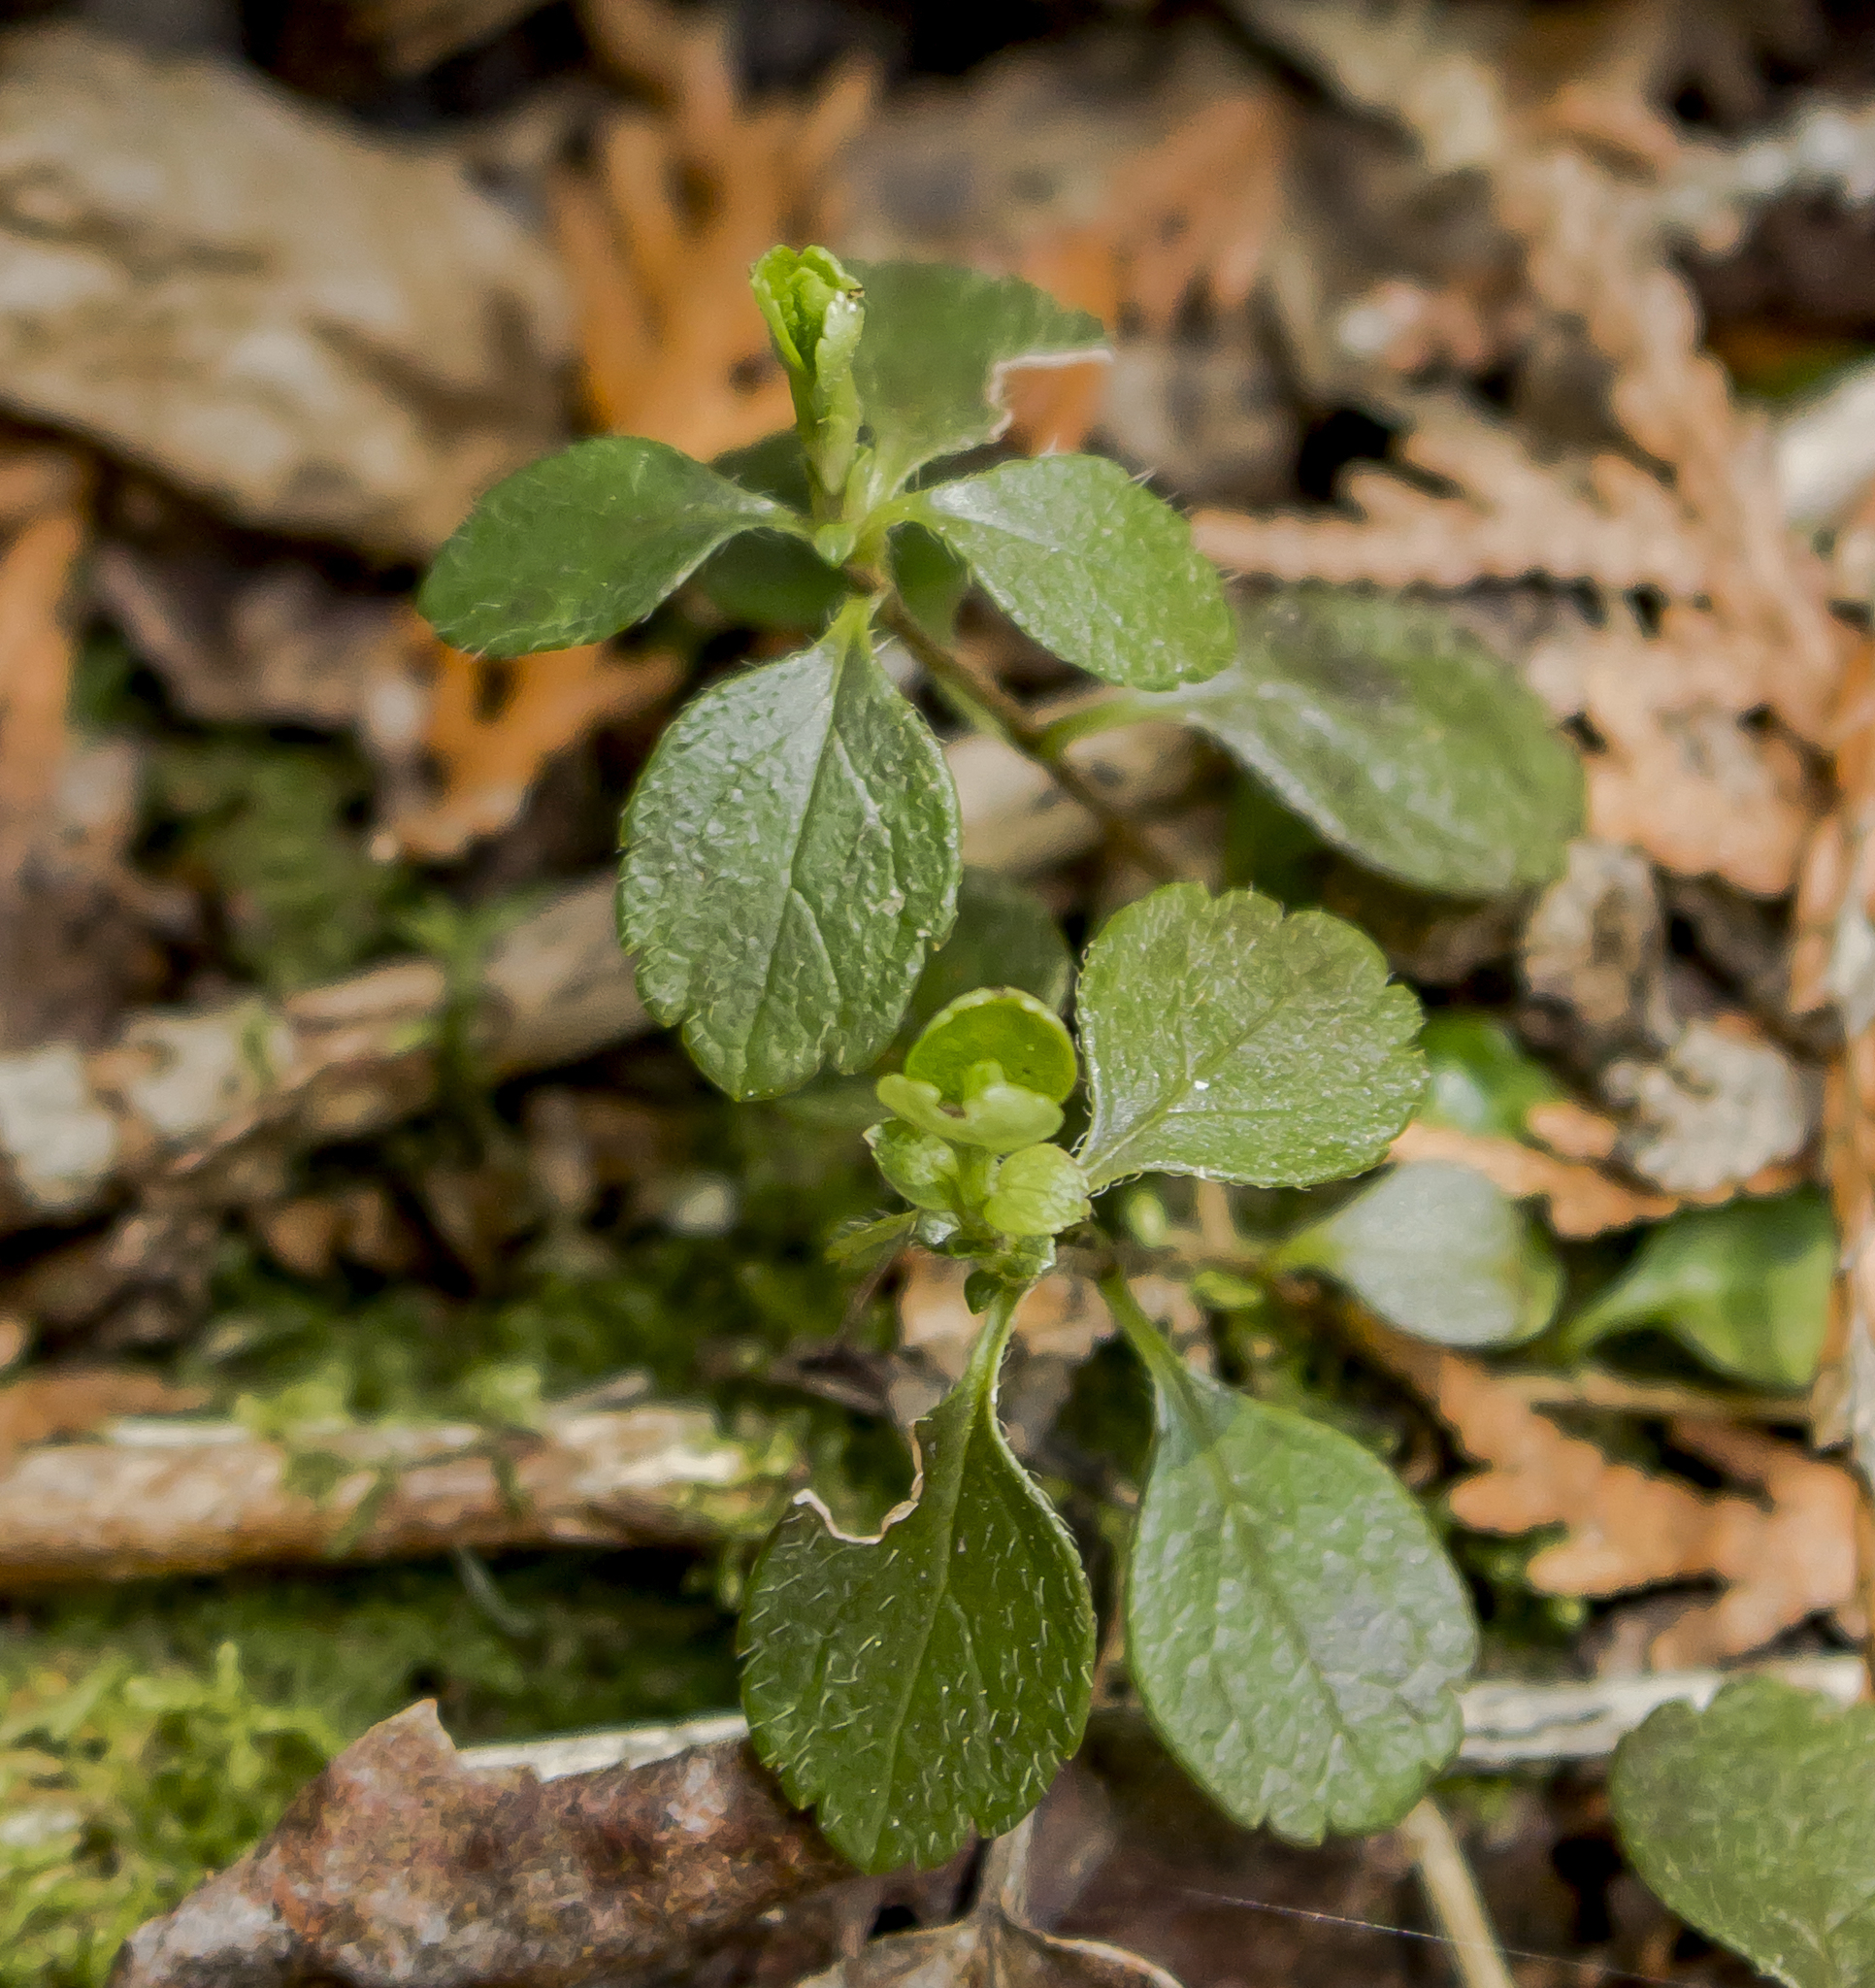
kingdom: Plantae
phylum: Tracheophyta
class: Magnoliopsida
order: Dipsacales
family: Caprifoliaceae
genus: Linnaea
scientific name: Linnaea borealis
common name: Twinflower
